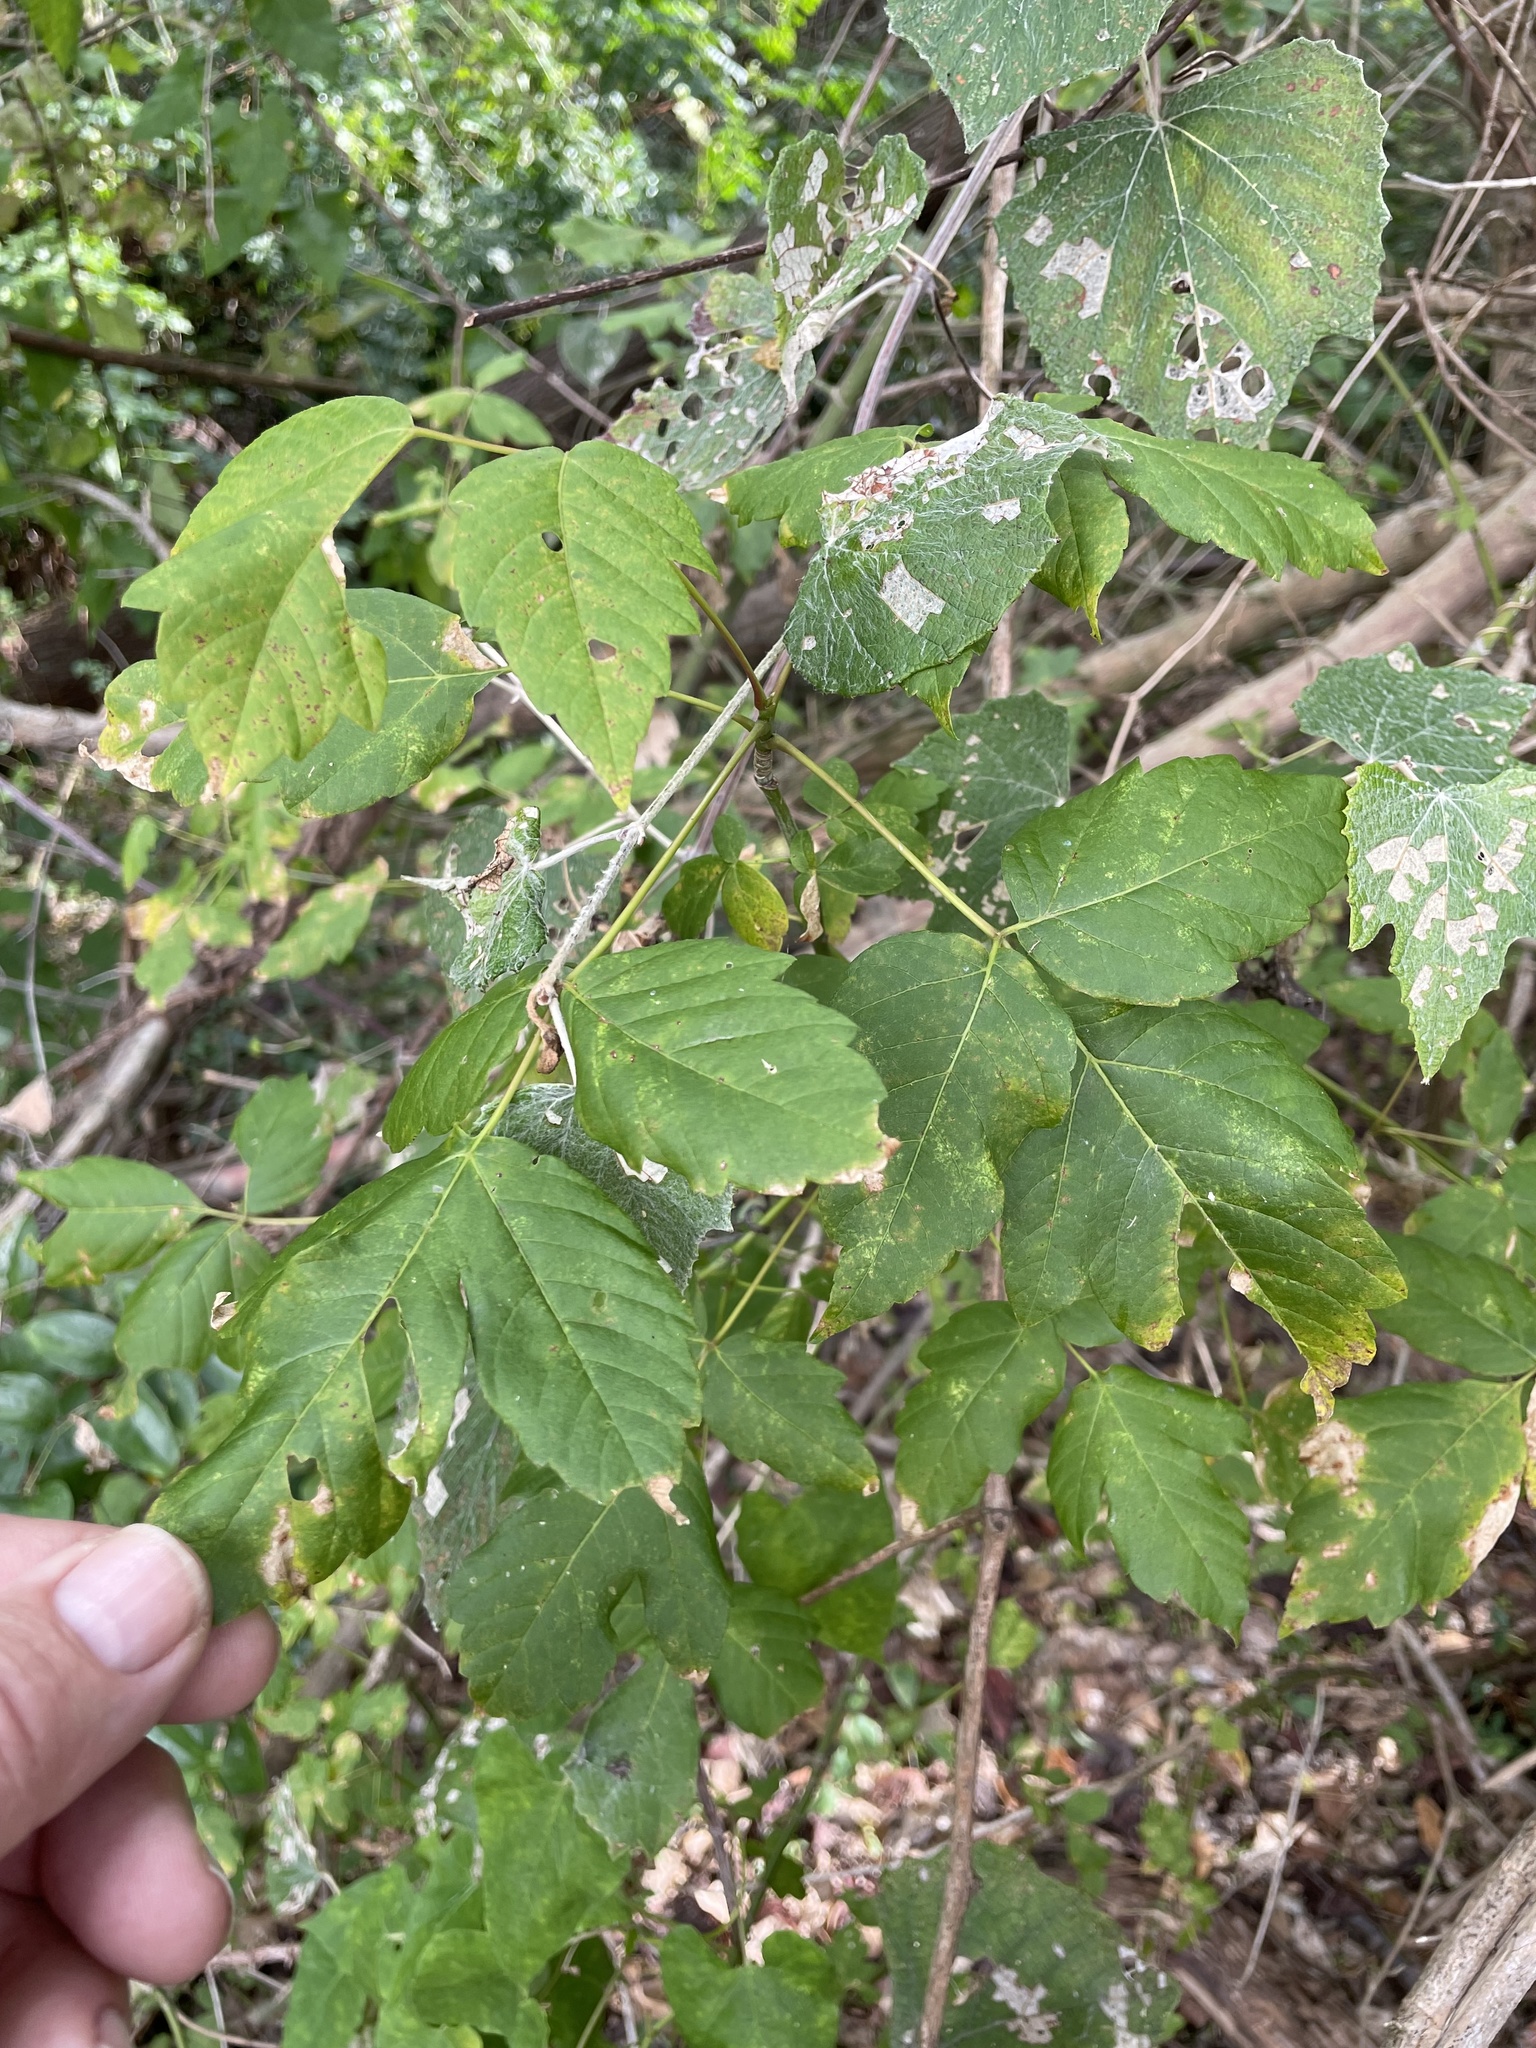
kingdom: Plantae
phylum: Tracheophyta
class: Magnoliopsida
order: Sapindales
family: Sapindaceae
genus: Acer
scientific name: Acer negundo
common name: Ashleaf maple
